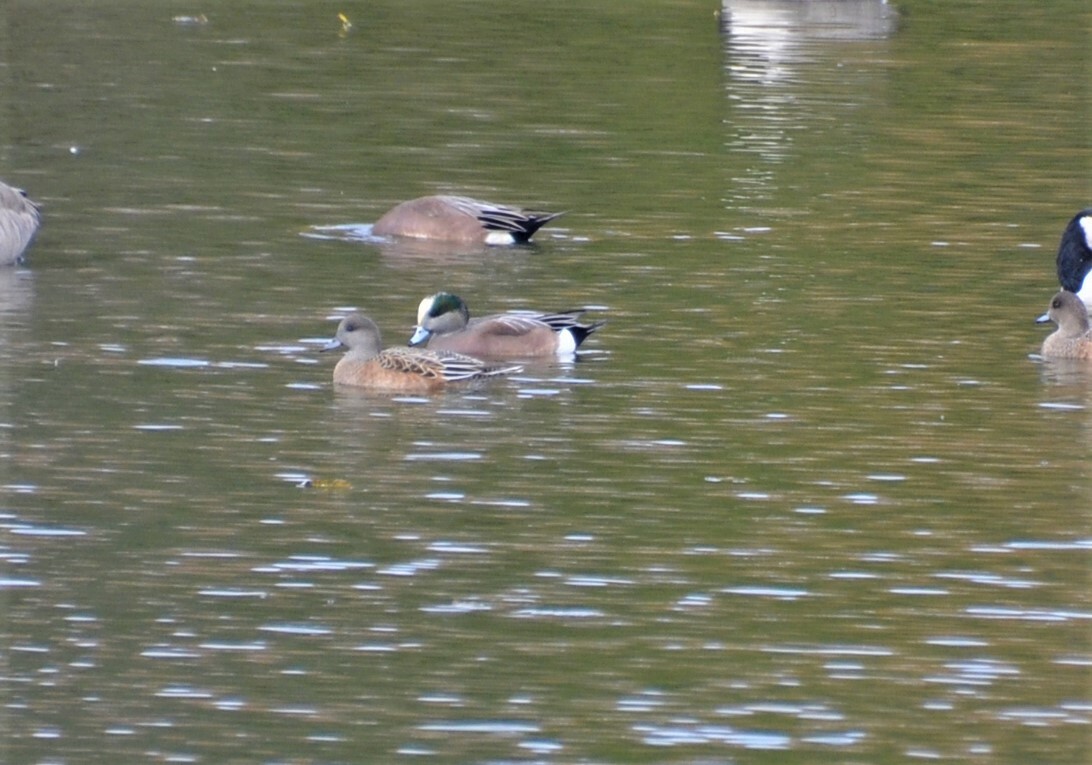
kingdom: Animalia
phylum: Chordata
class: Aves
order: Anseriformes
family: Anatidae
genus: Mareca
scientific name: Mareca americana
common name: American wigeon
